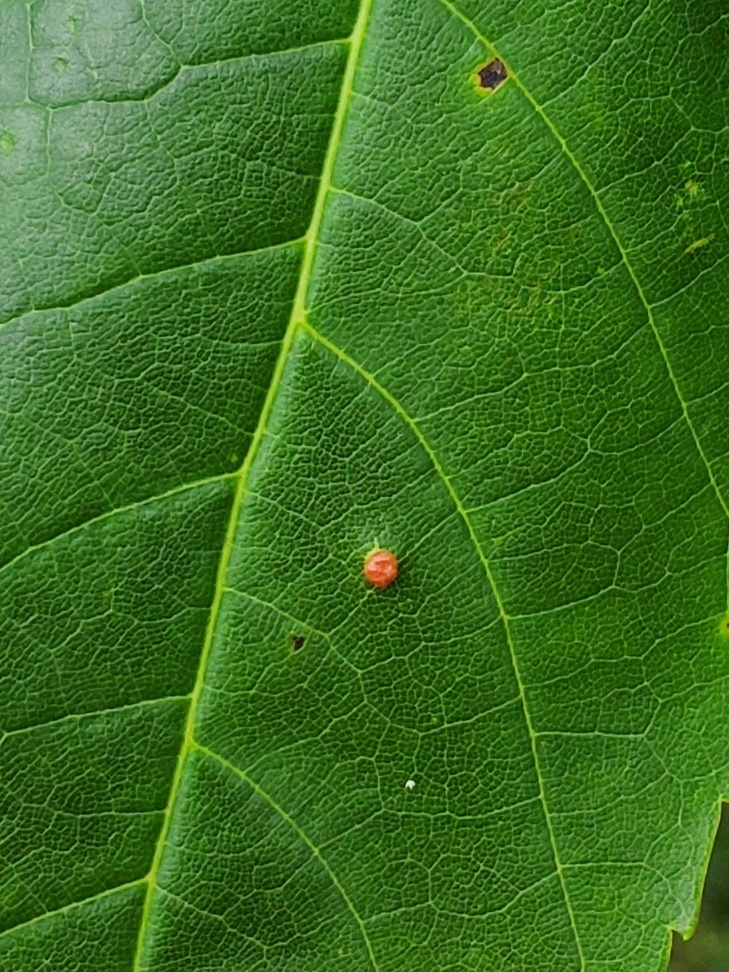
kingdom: Animalia
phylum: Arthropoda
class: Arachnida
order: Trombidiformes
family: Eriophyidae
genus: Vasates
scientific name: Vasates quadripedes
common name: Maple bladder gall mite
